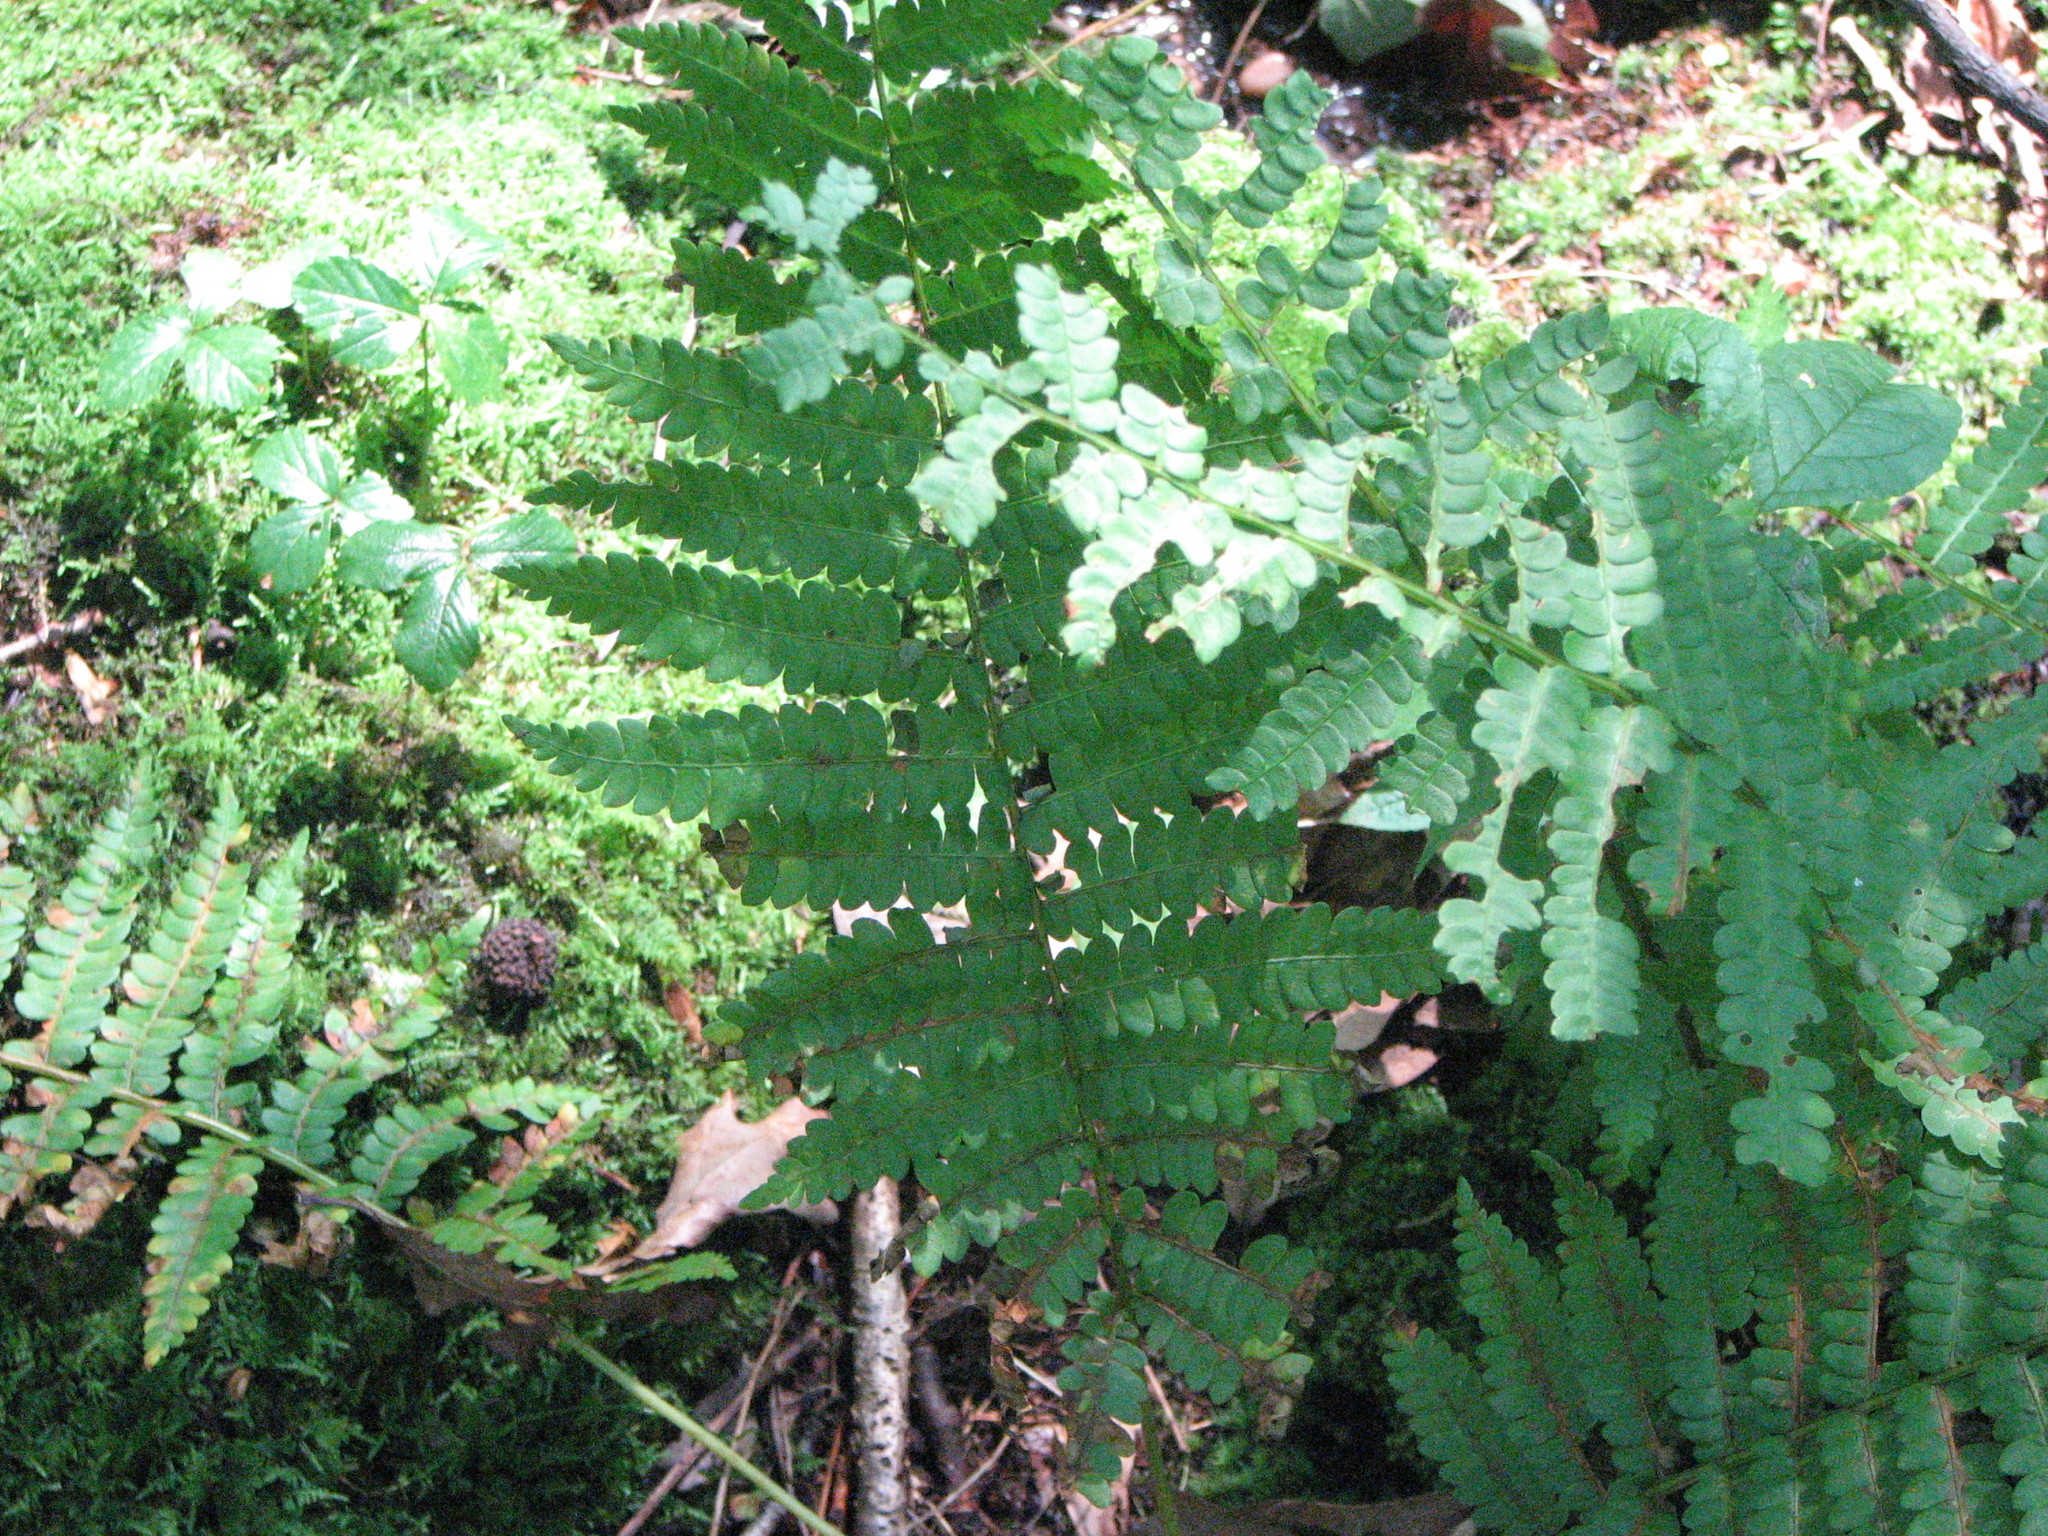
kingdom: Plantae
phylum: Tracheophyta
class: Polypodiopsida
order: Osmundales
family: Osmundaceae
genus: Osmundastrum
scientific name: Osmundastrum cinnamomeum
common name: Cinnamon fern
